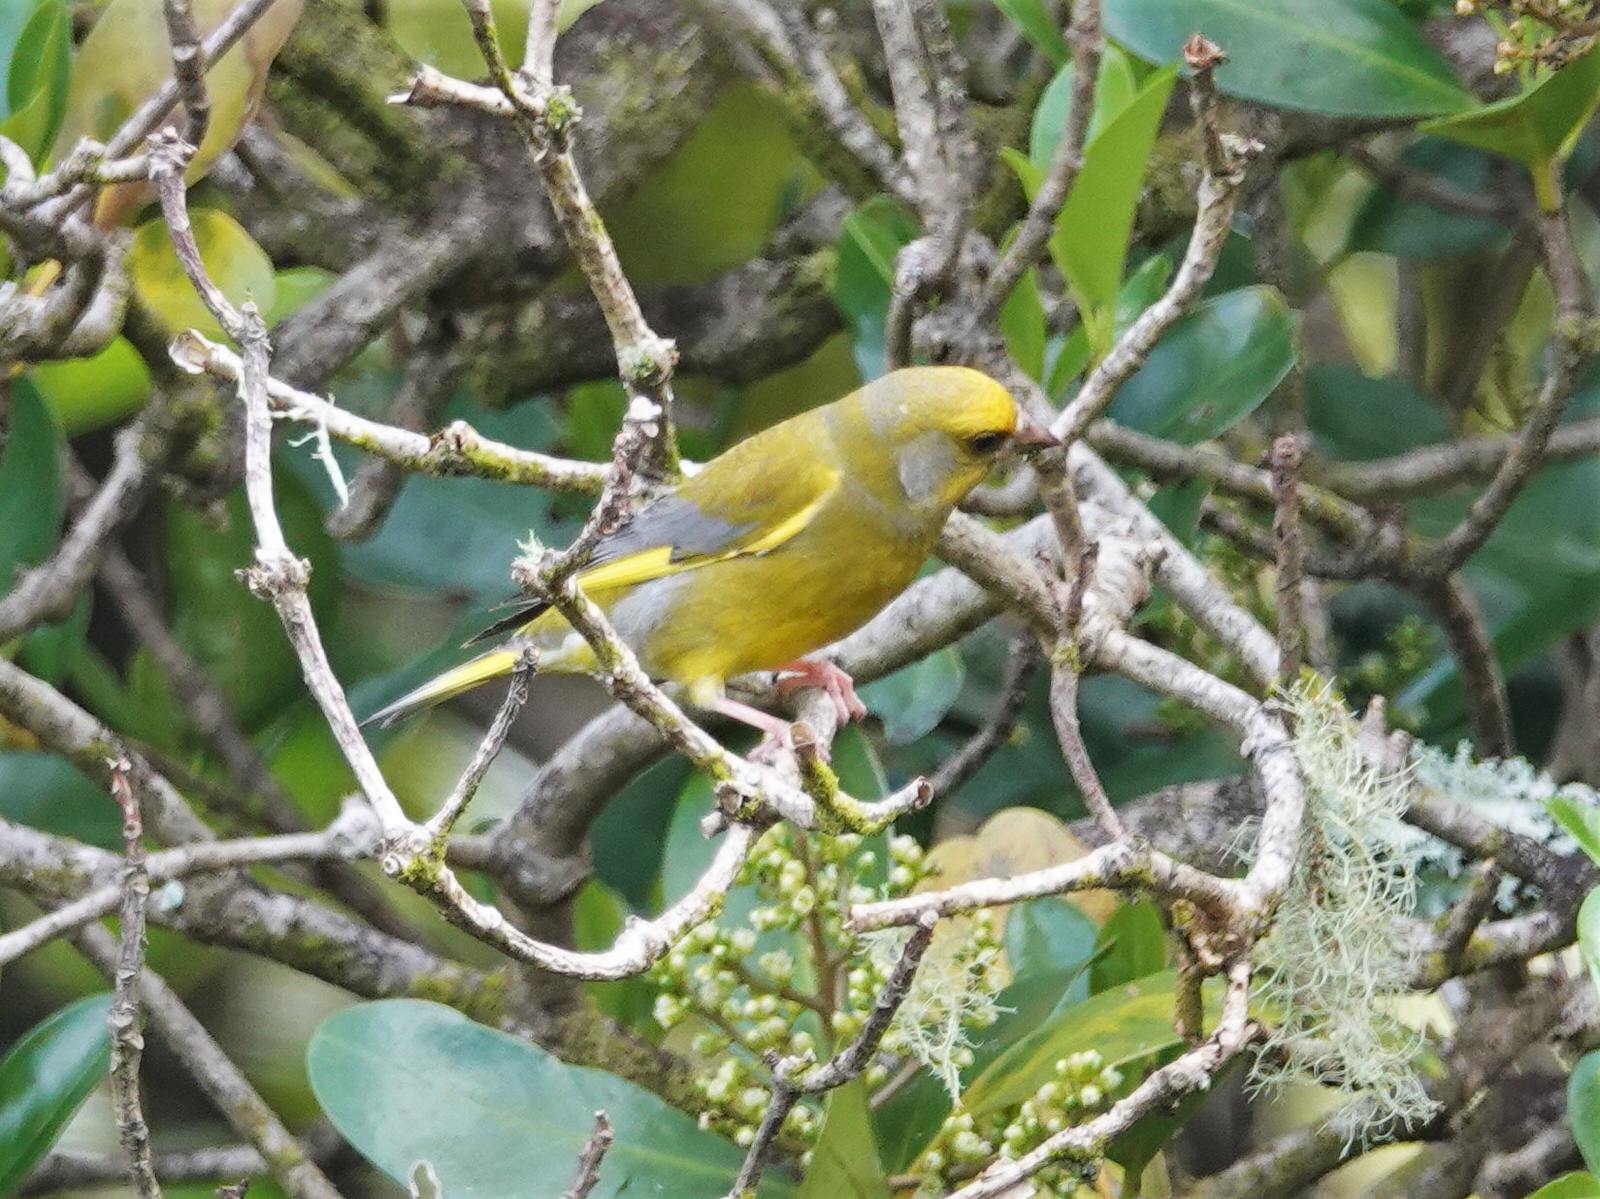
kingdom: Plantae
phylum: Tracheophyta
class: Liliopsida
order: Poales
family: Poaceae
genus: Chloris
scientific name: Chloris chloris
